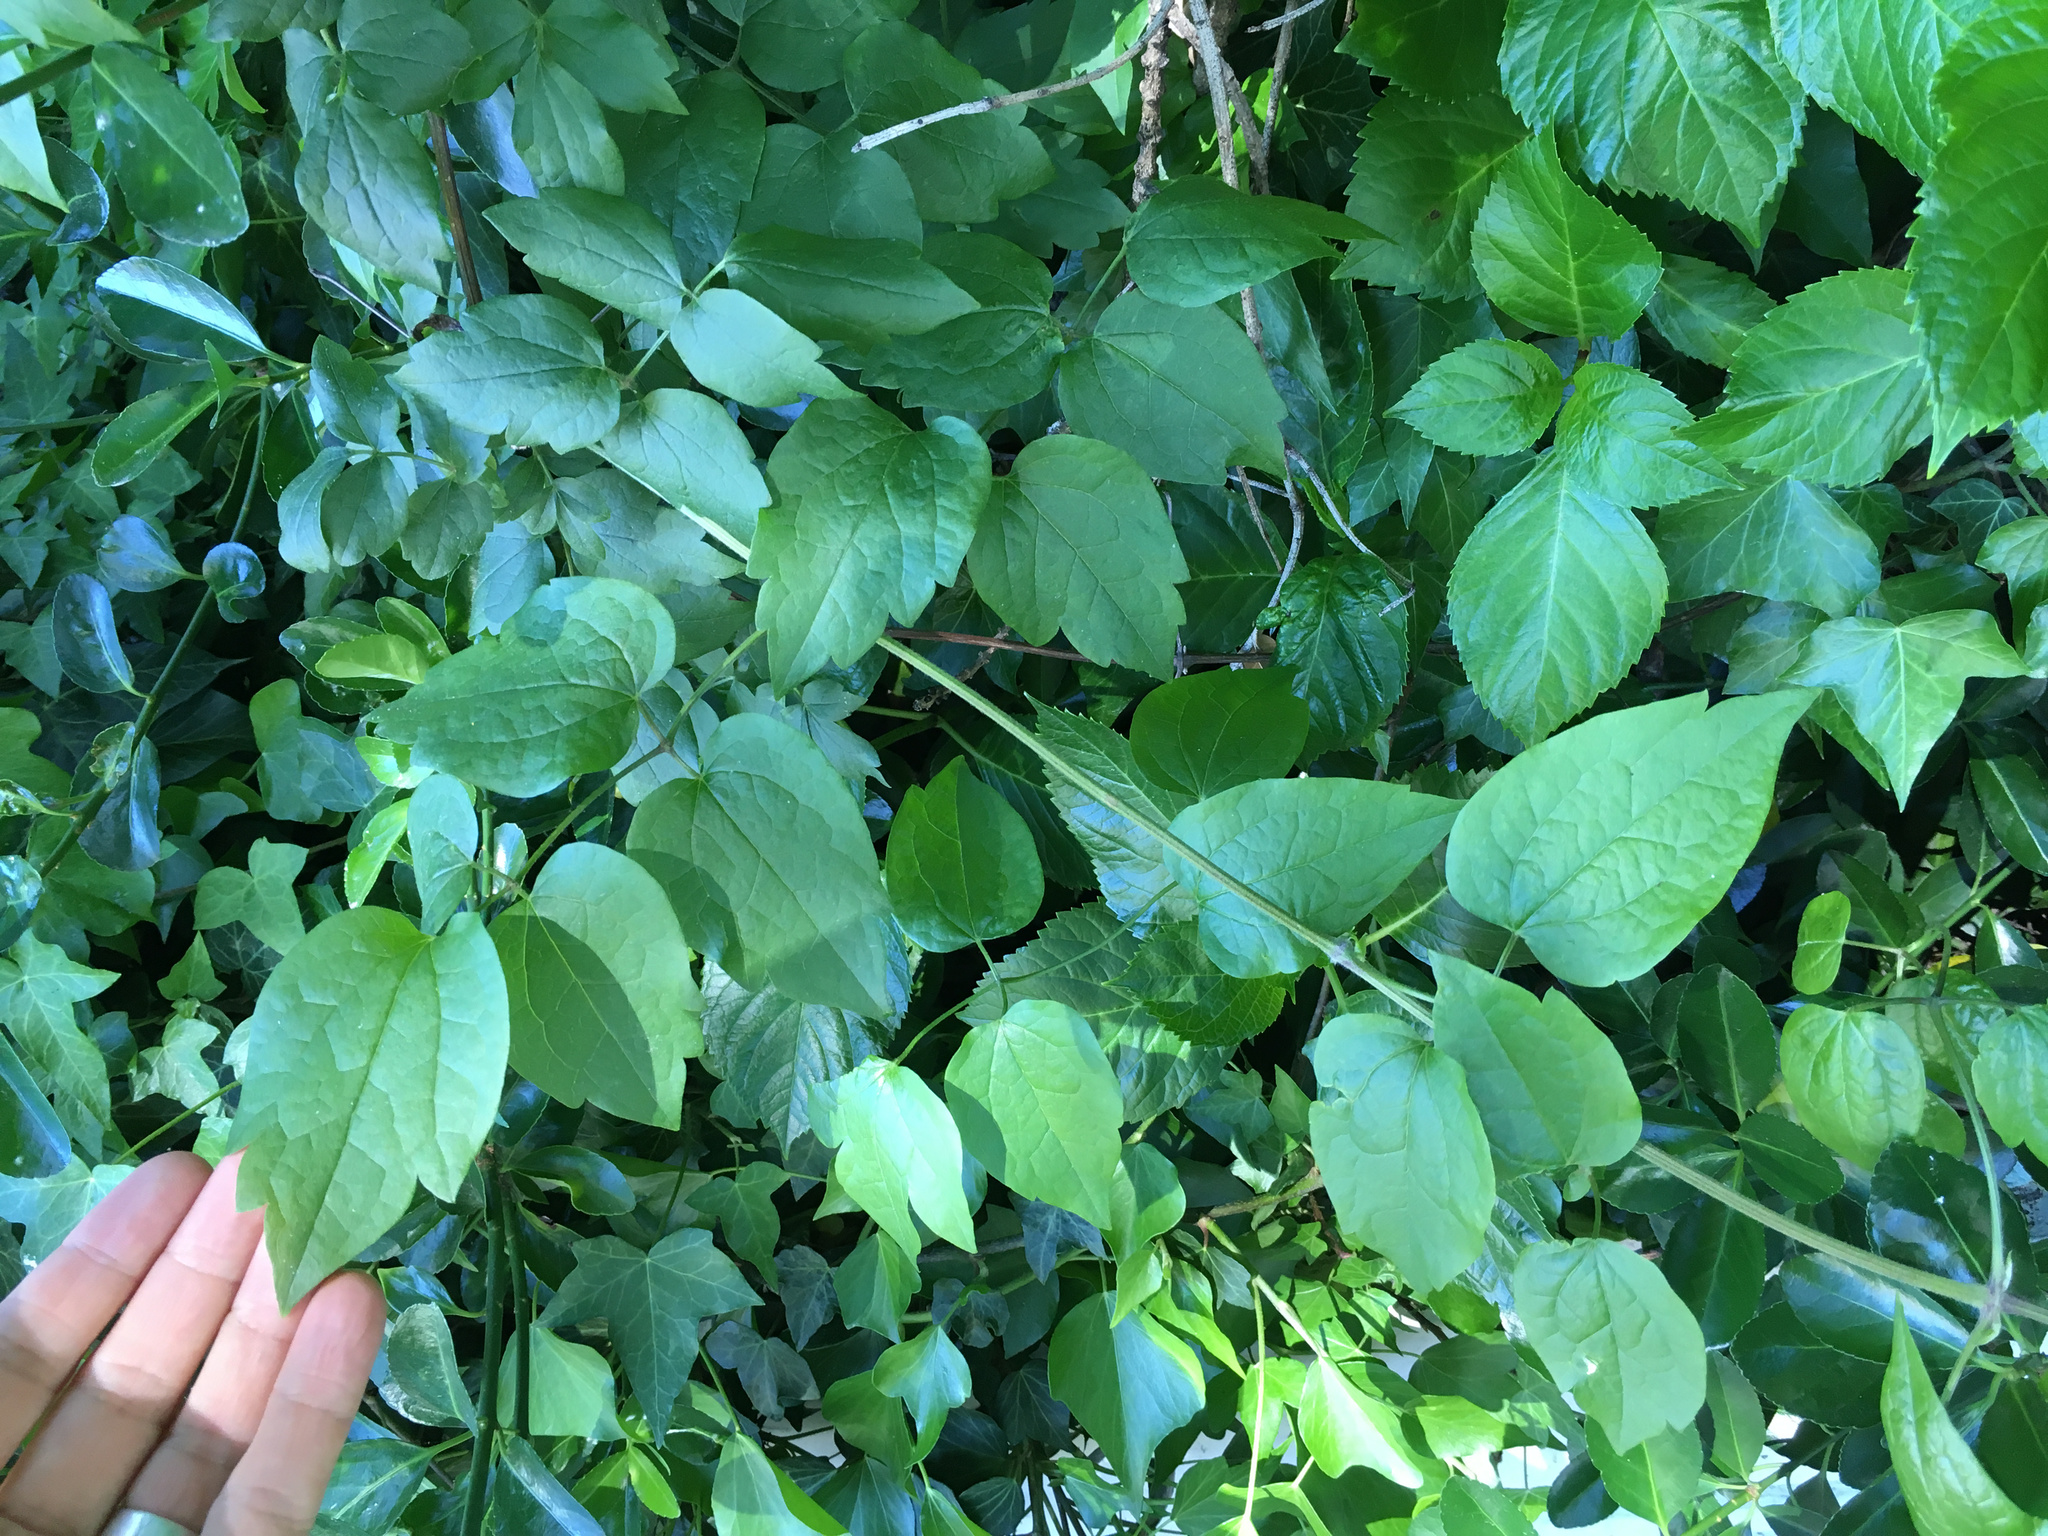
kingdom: Plantae
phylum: Tracheophyta
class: Magnoliopsida
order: Ranunculales
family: Ranunculaceae
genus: Clematis
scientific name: Clematis vitalba
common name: Evergreen clematis
